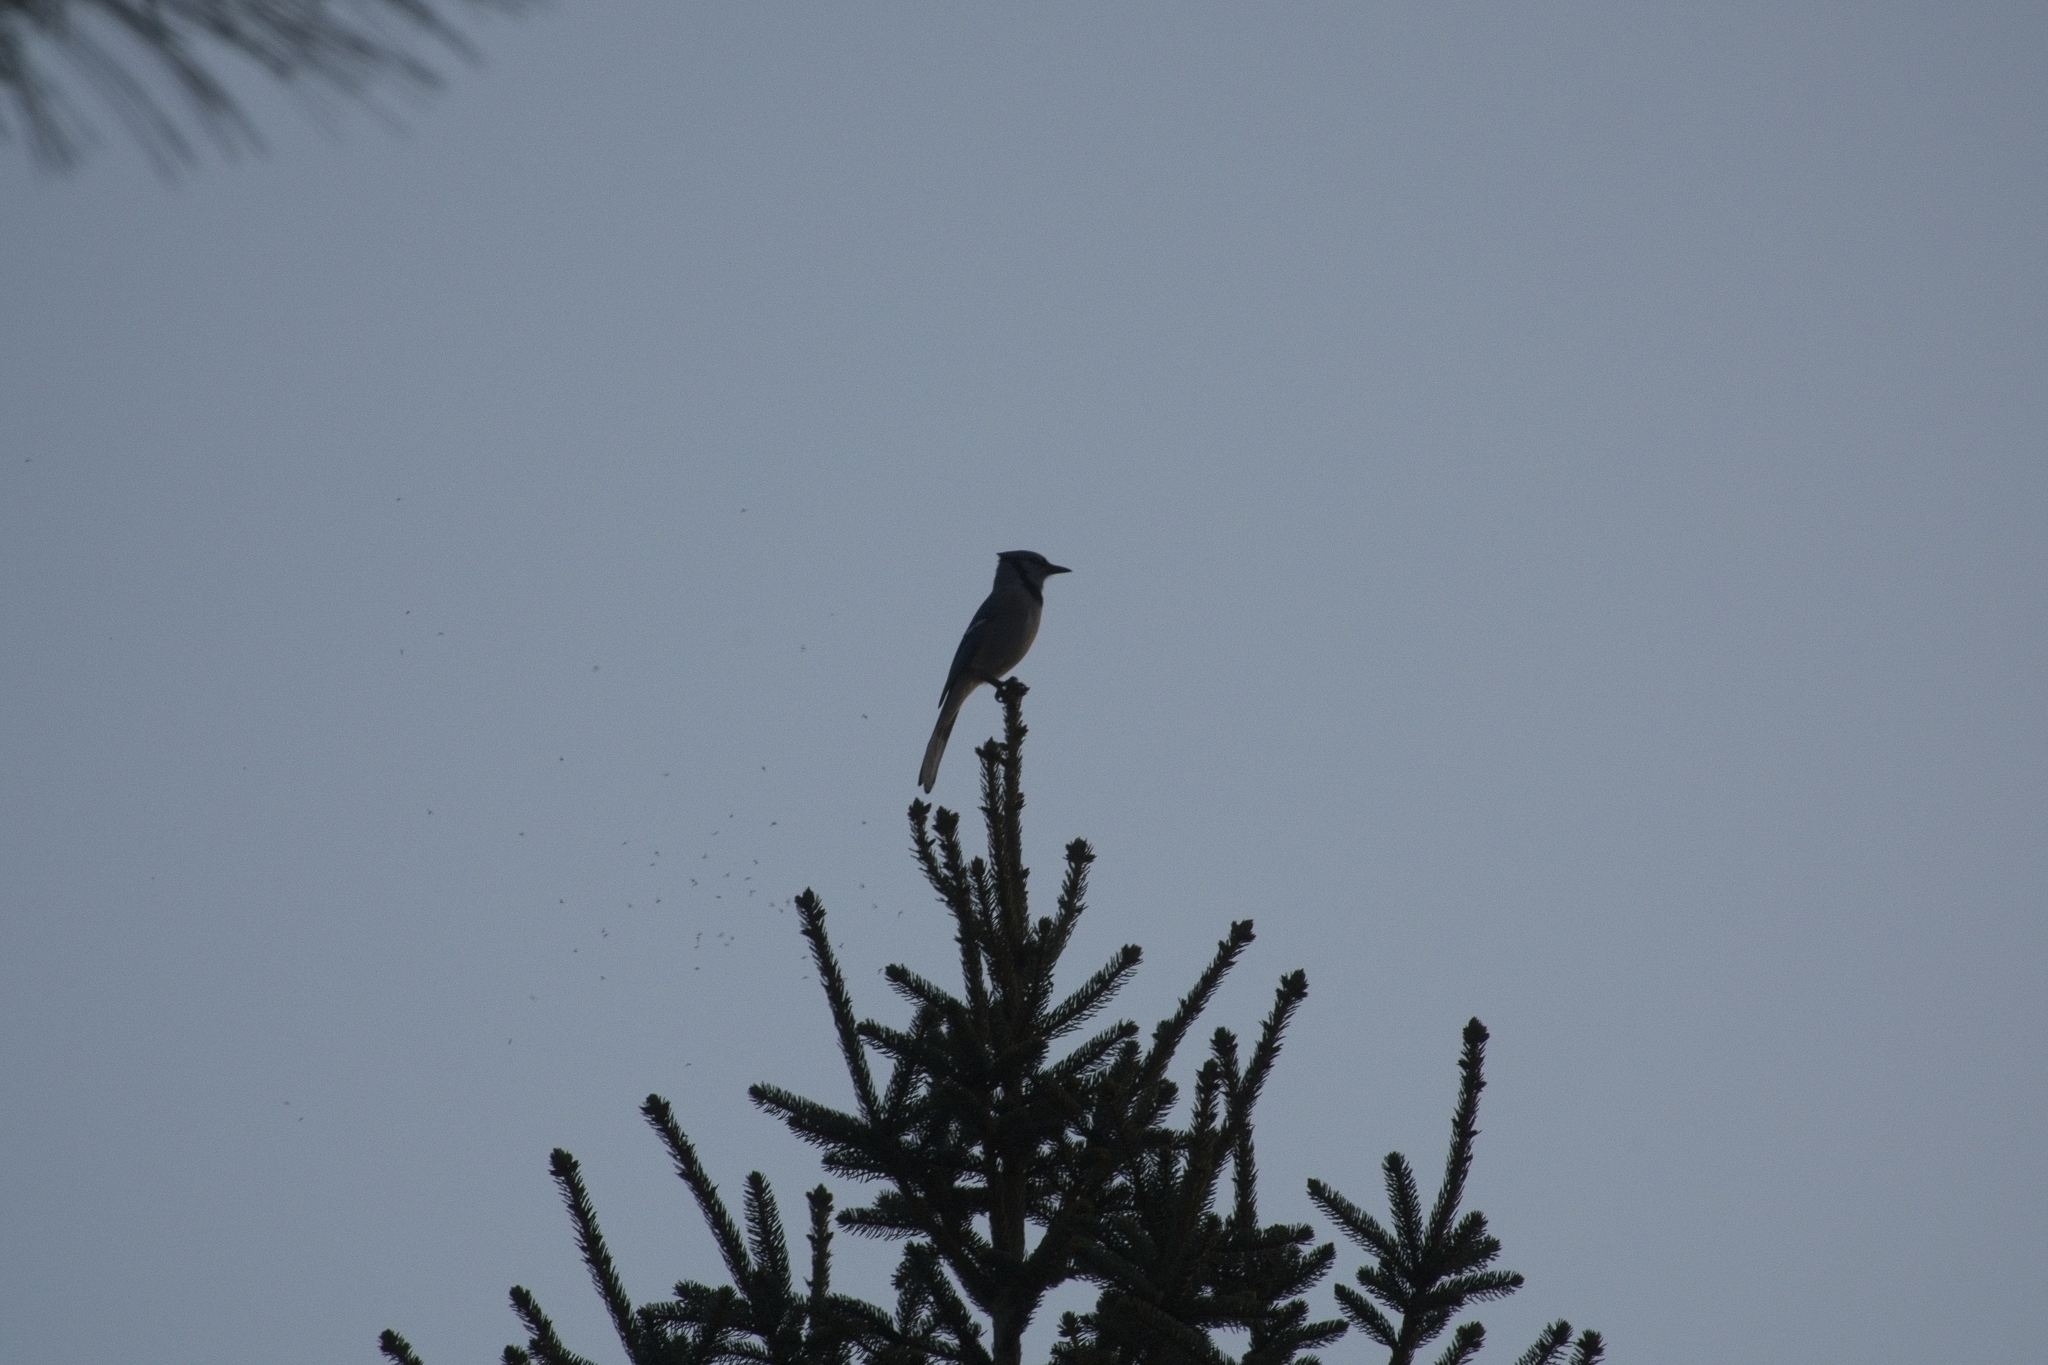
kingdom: Animalia
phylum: Chordata
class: Aves
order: Passeriformes
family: Corvidae
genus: Cyanocitta
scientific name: Cyanocitta cristata
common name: Blue jay
